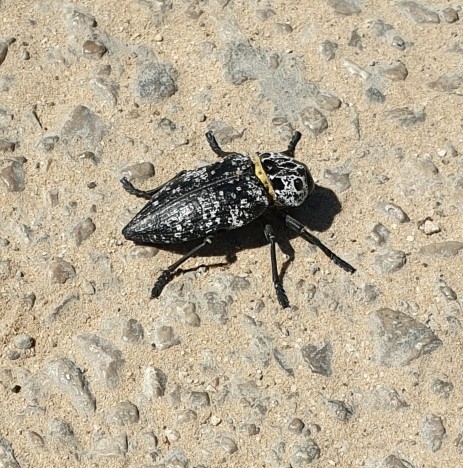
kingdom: Animalia
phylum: Arthropoda
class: Insecta
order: Coleoptera
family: Buprestidae
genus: Capnodis
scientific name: Capnodis cariosa
